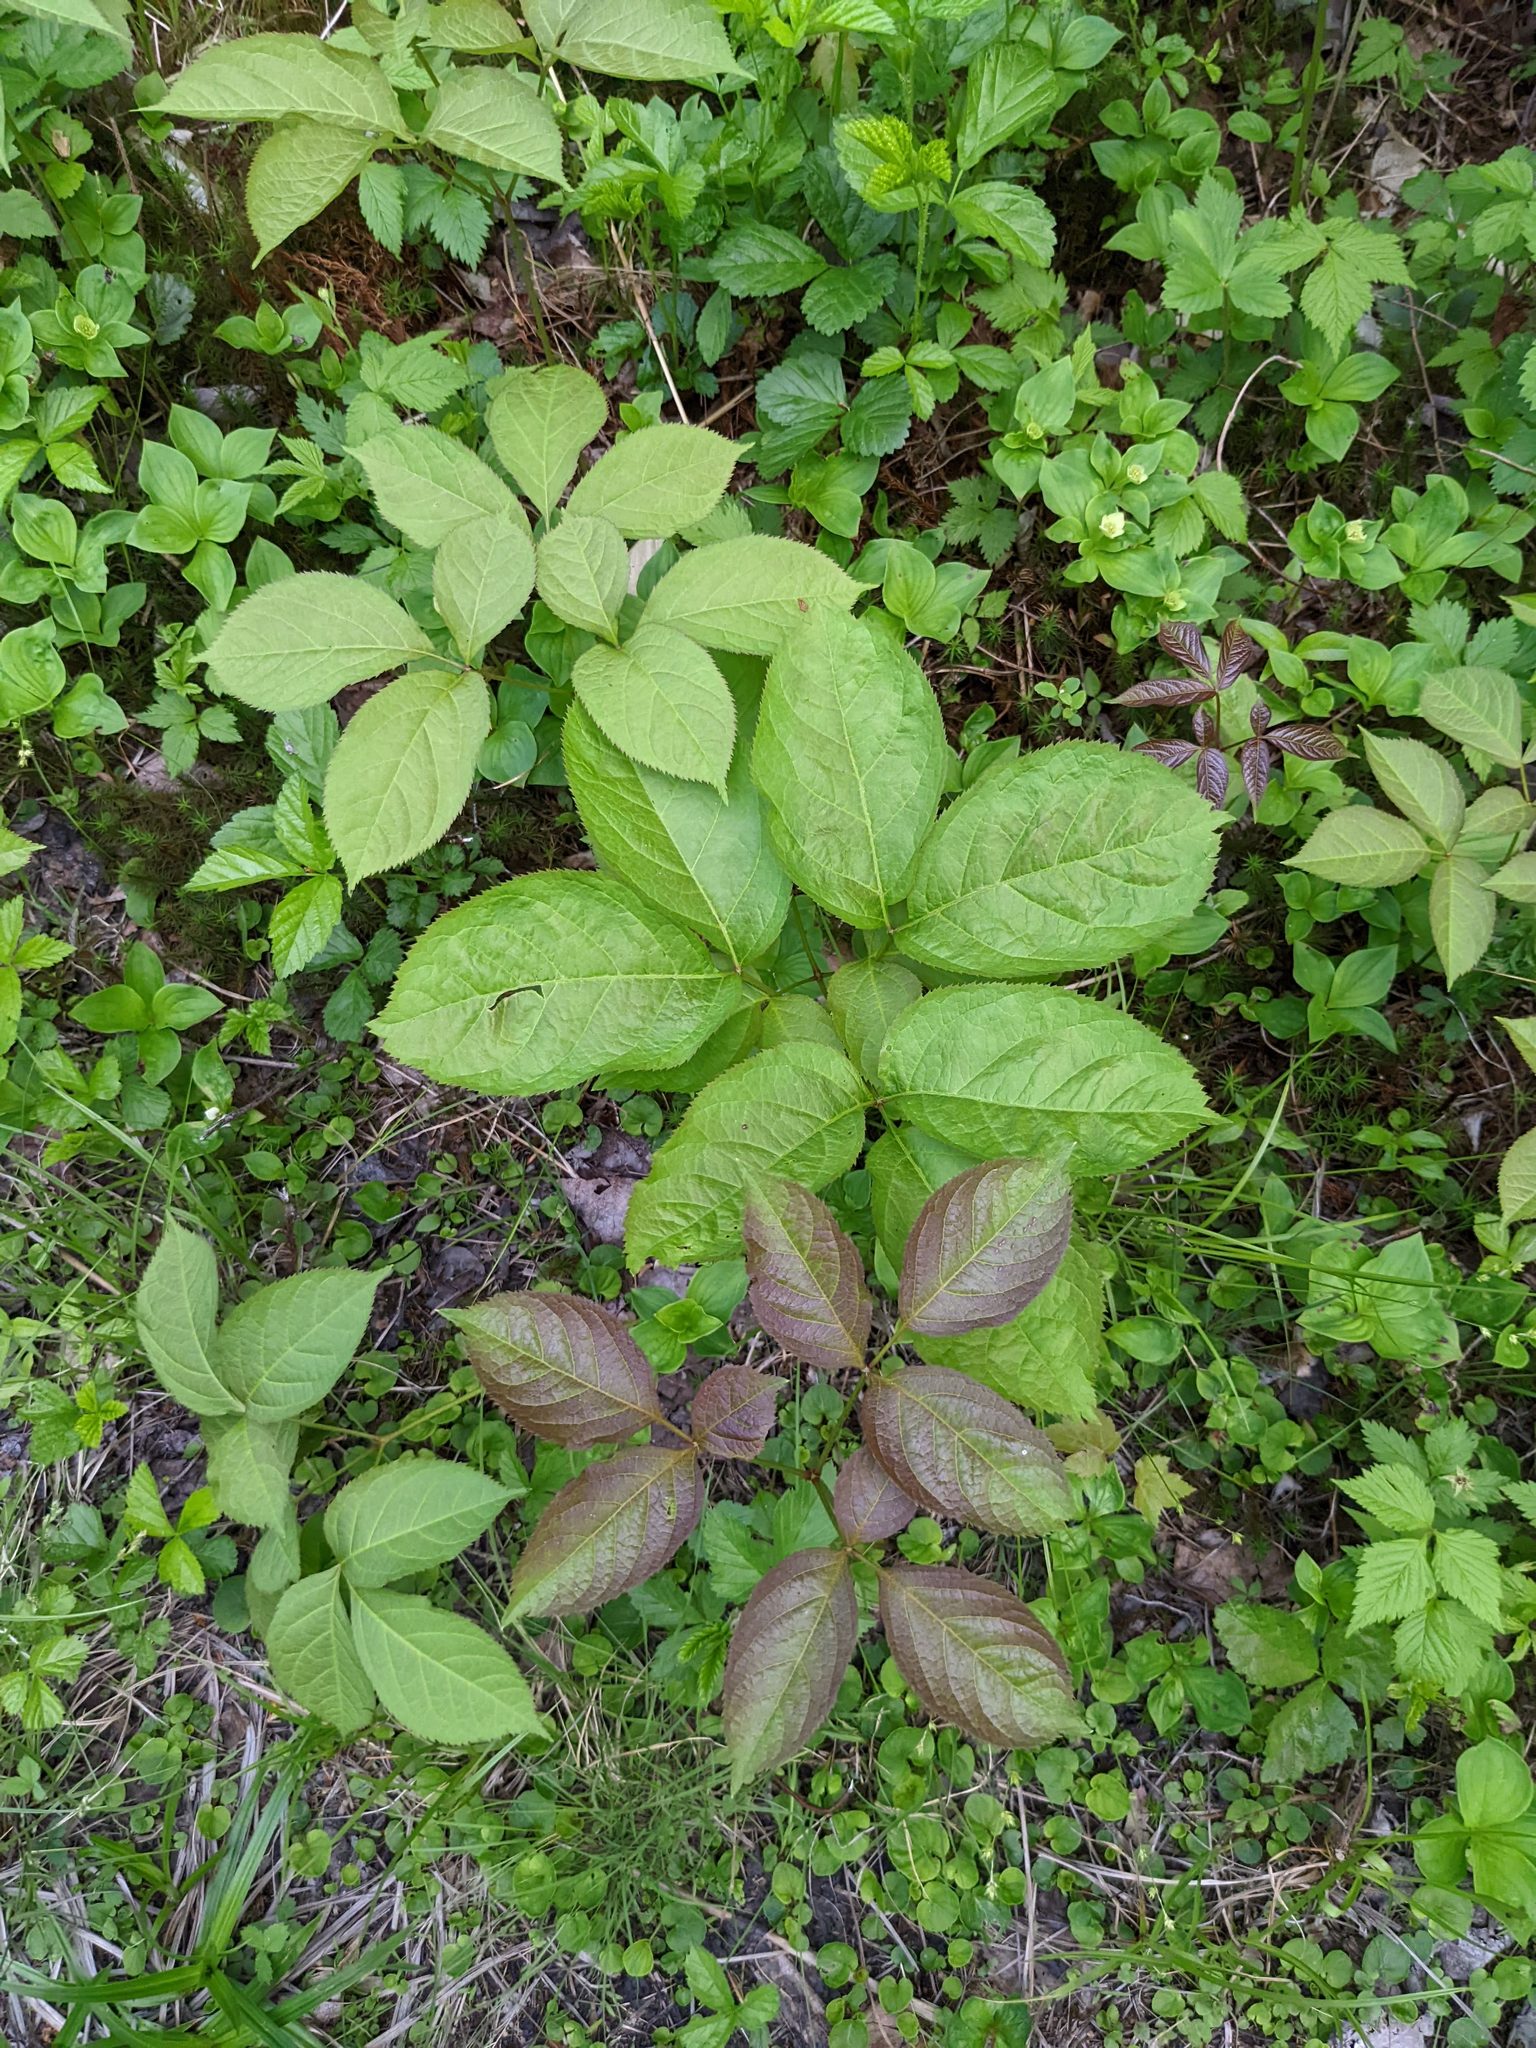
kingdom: Plantae
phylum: Tracheophyta
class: Magnoliopsida
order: Apiales
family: Araliaceae
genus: Aralia
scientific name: Aralia nudicaulis
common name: Wild sarsaparilla
